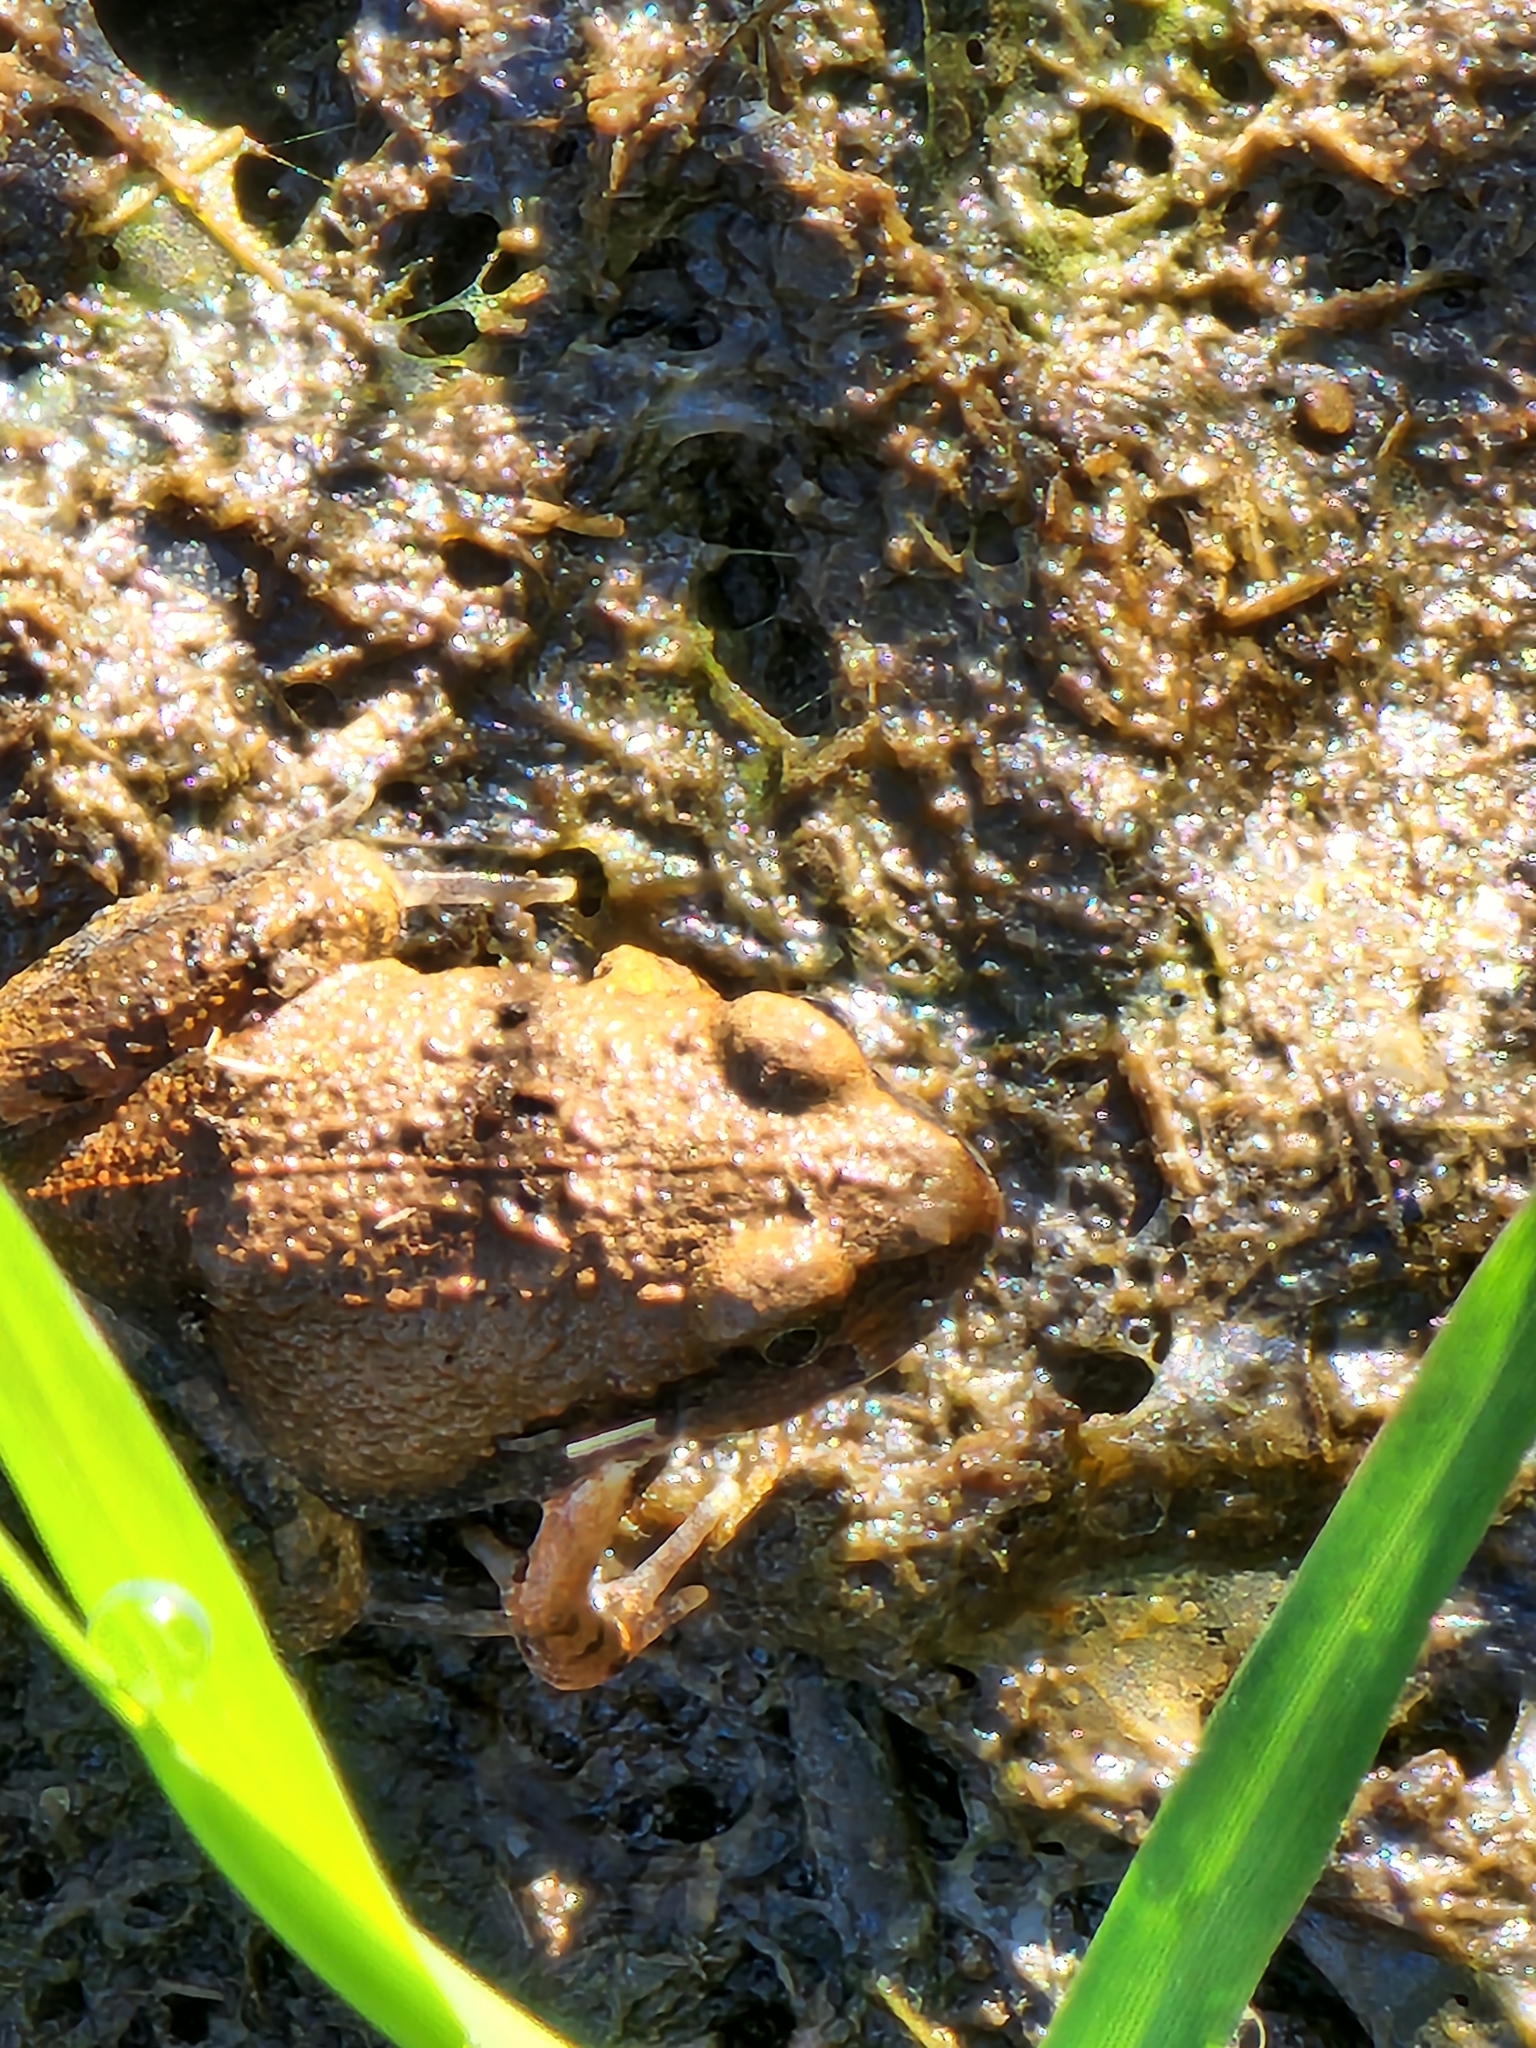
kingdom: Animalia
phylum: Chordata
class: Amphibia
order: Anura
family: Limnodynastidae
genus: Platyplectrum
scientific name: Platyplectrum ornatum
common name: Ornate burrowing frog
